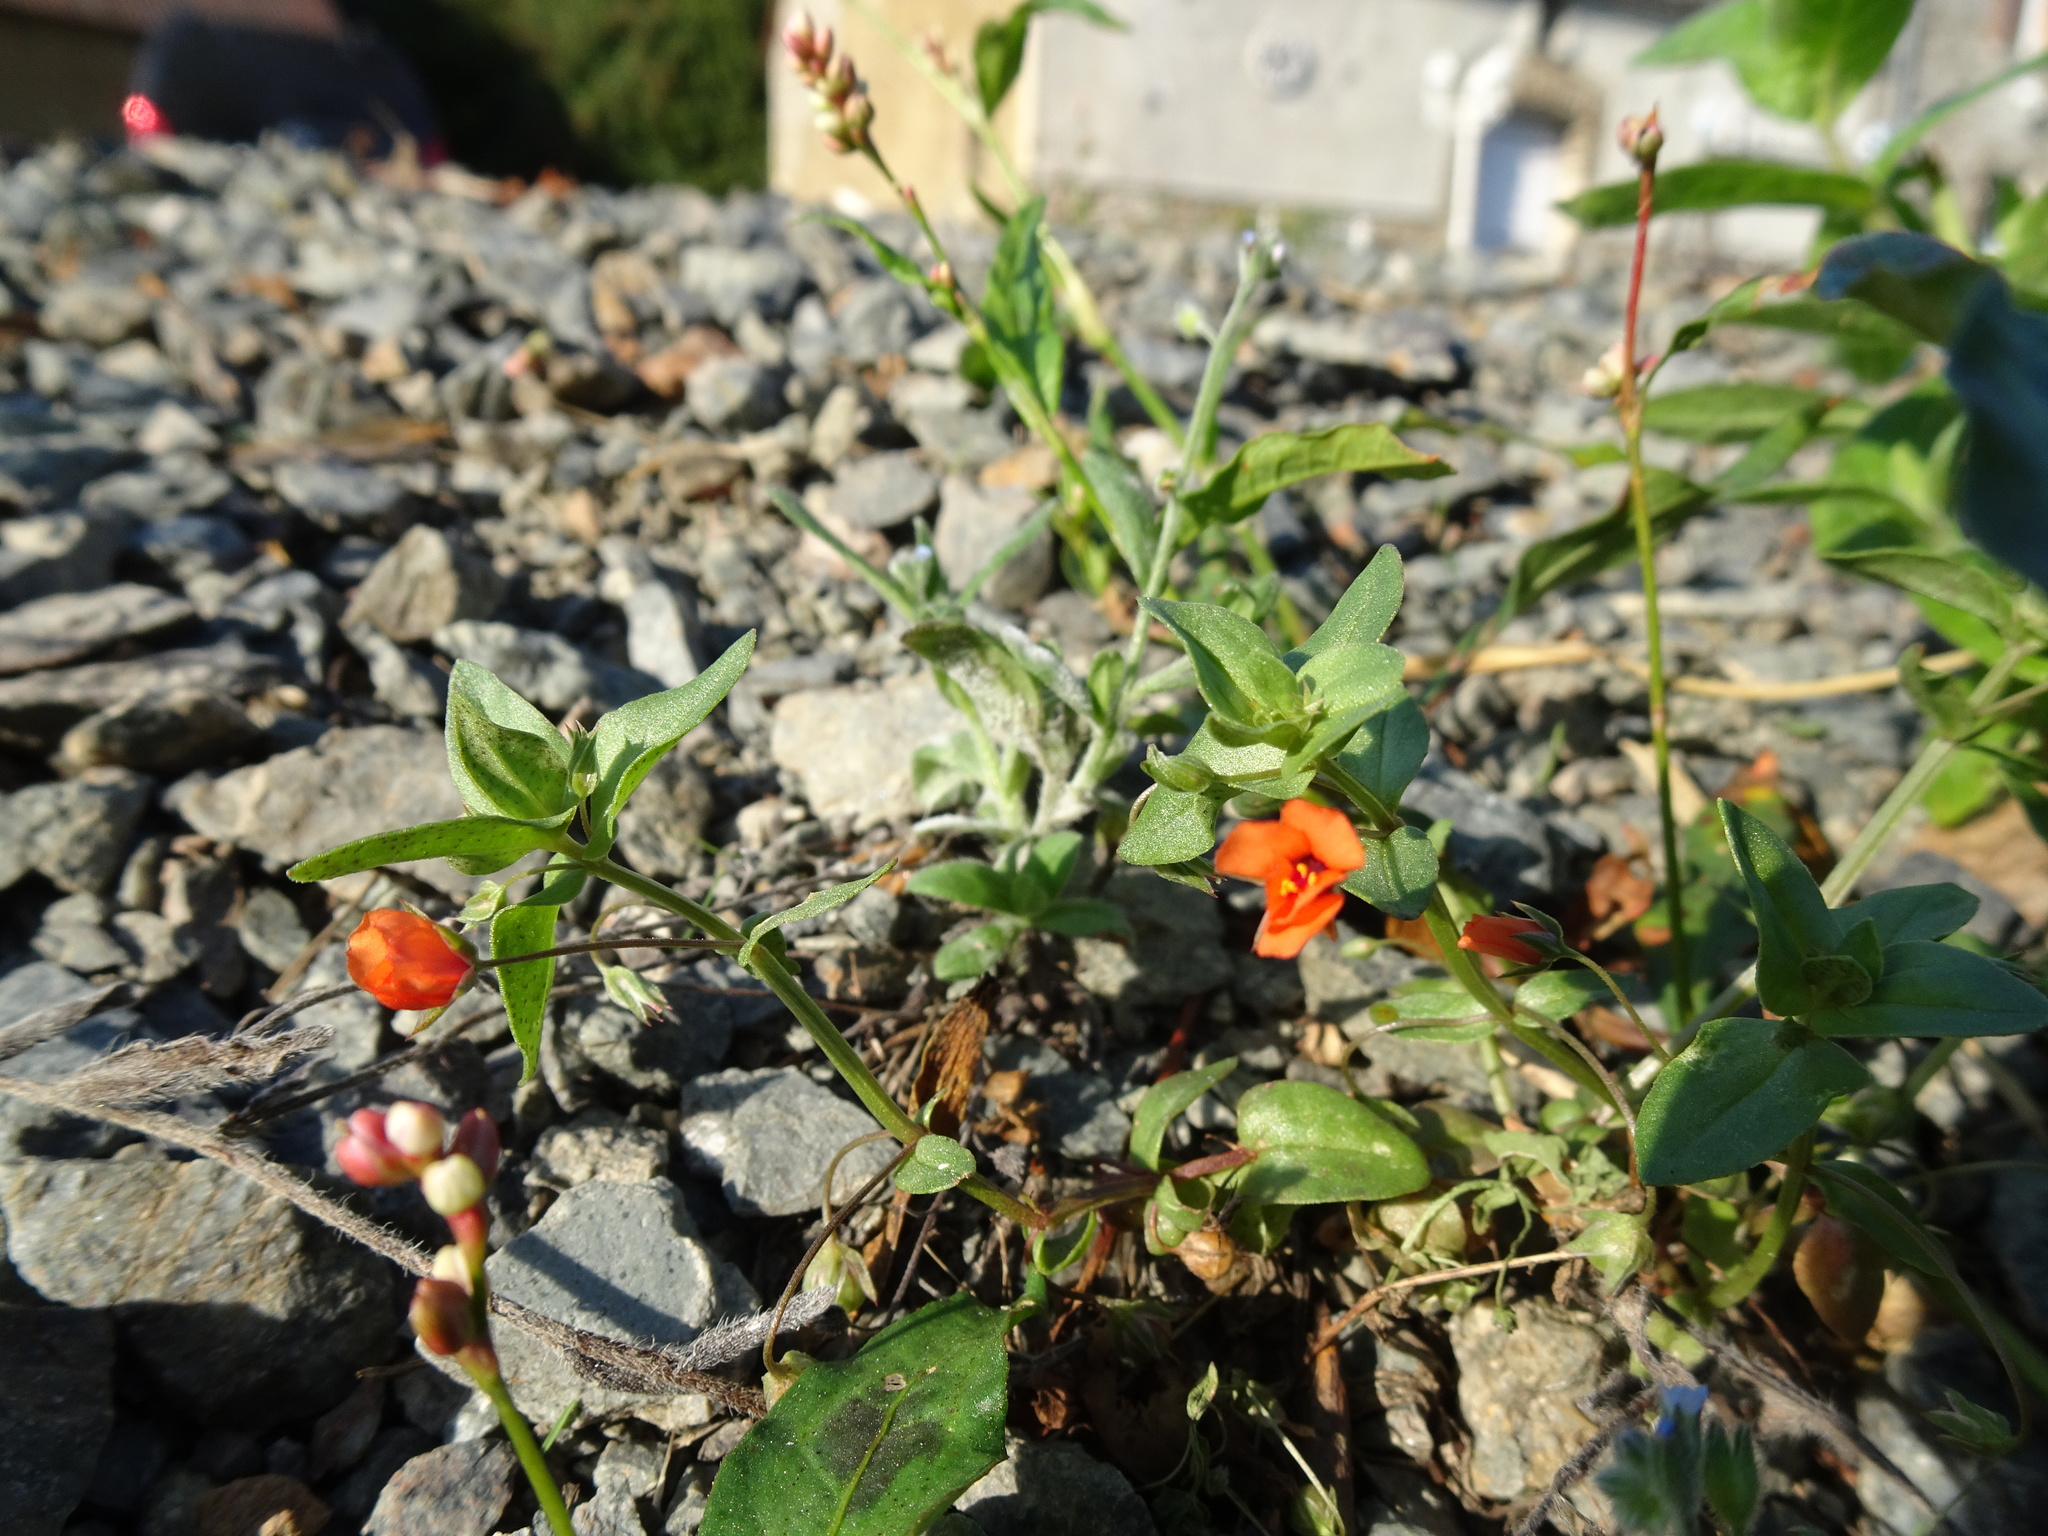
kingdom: Plantae
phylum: Tracheophyta
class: Magnoliopsida
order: Ericales
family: Primulaceae
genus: Lysimachia
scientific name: Lysimachia arvensis
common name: Scarlet pimpernel
